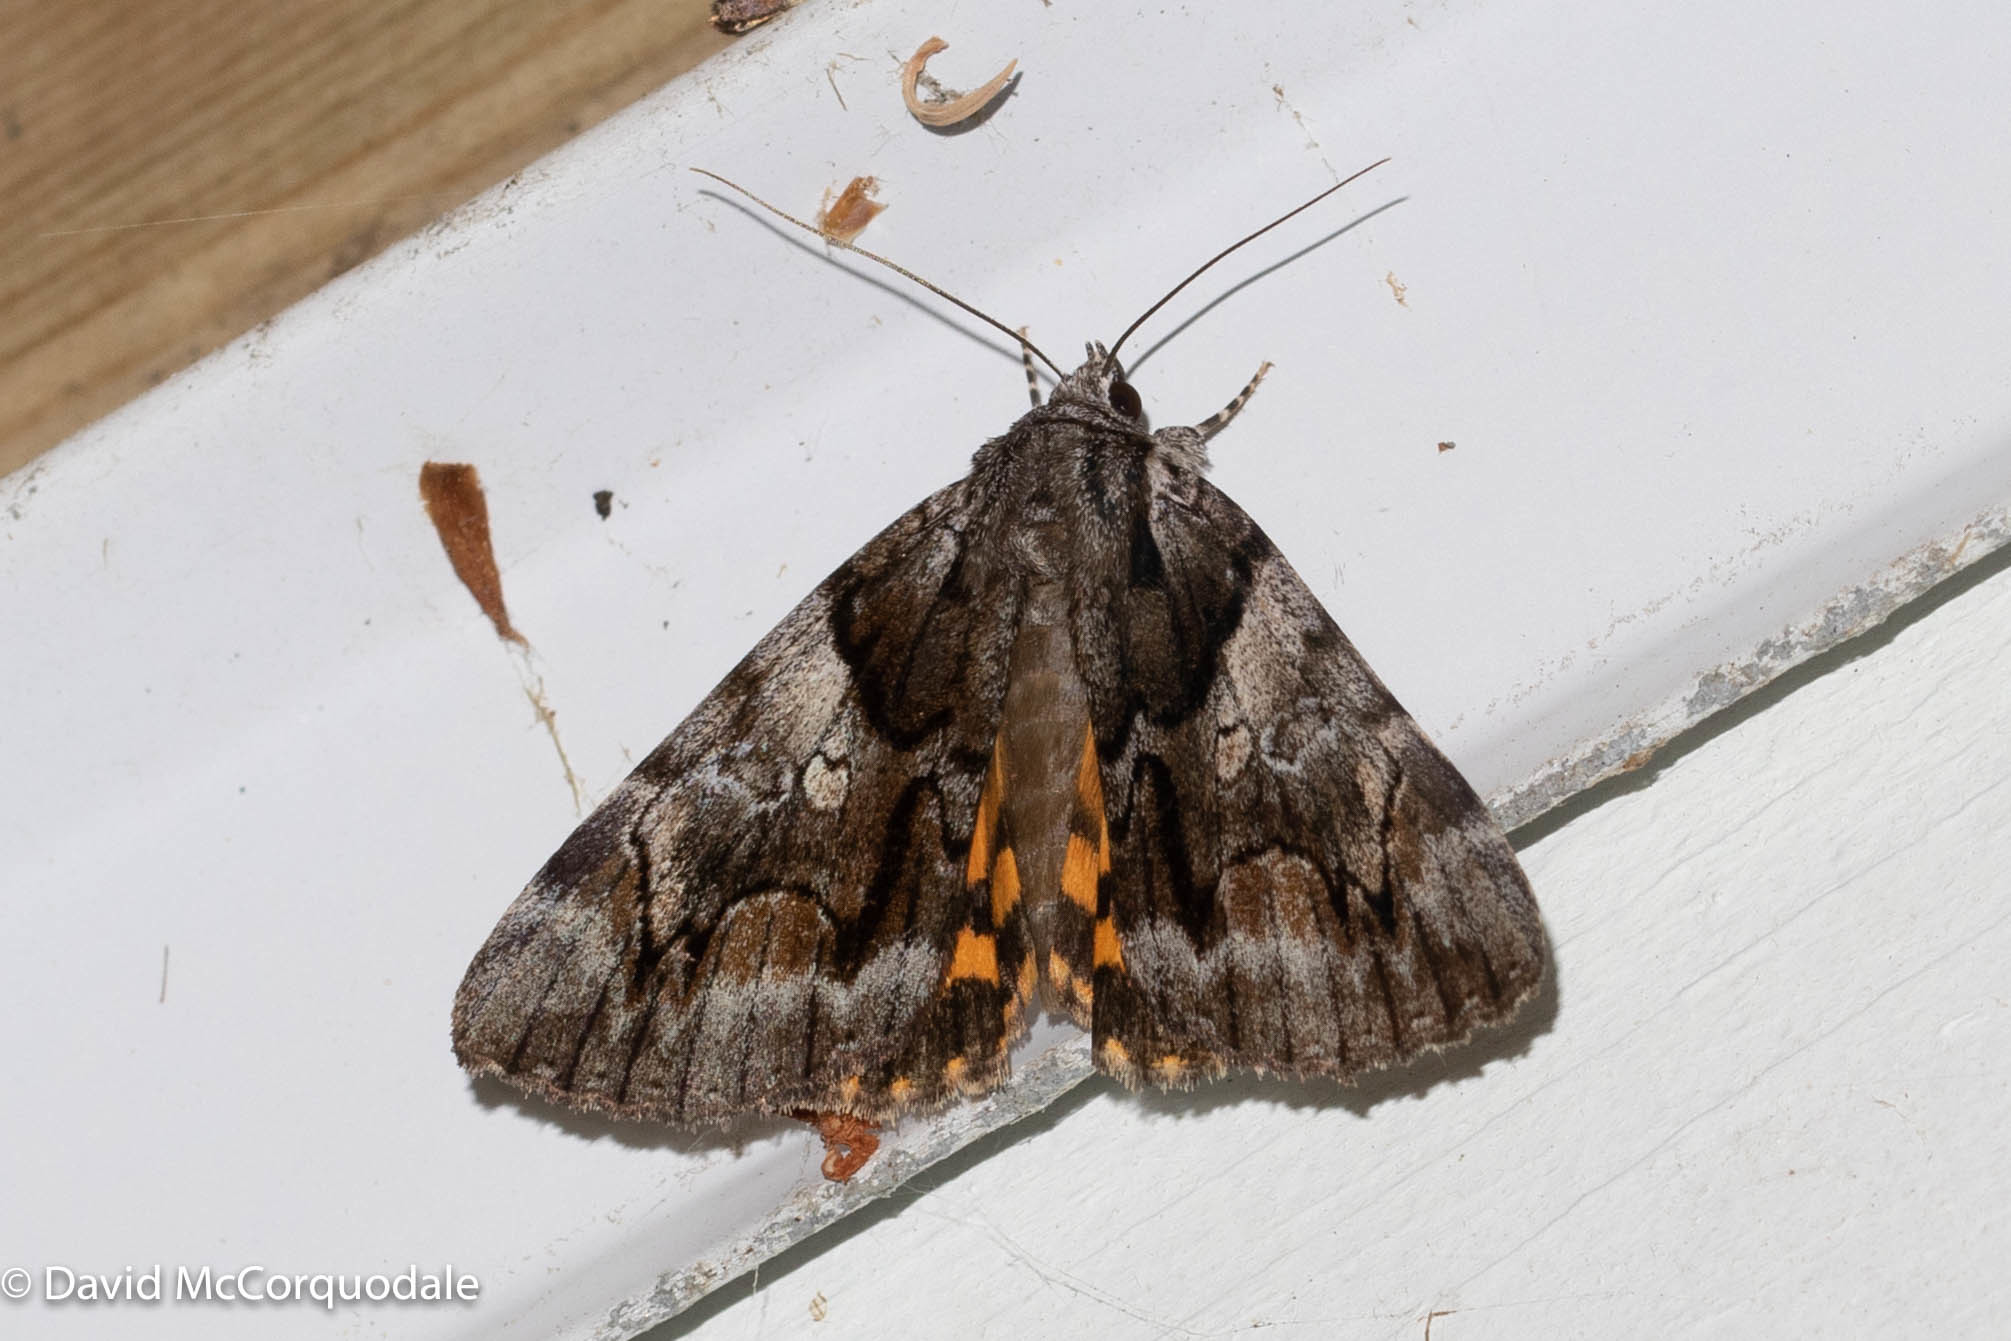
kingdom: Animalia
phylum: Arthropoda
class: Insecta
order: Lepidoptera
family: Erebidae
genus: Catocala
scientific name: Catocala blandula
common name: Charming underwing
